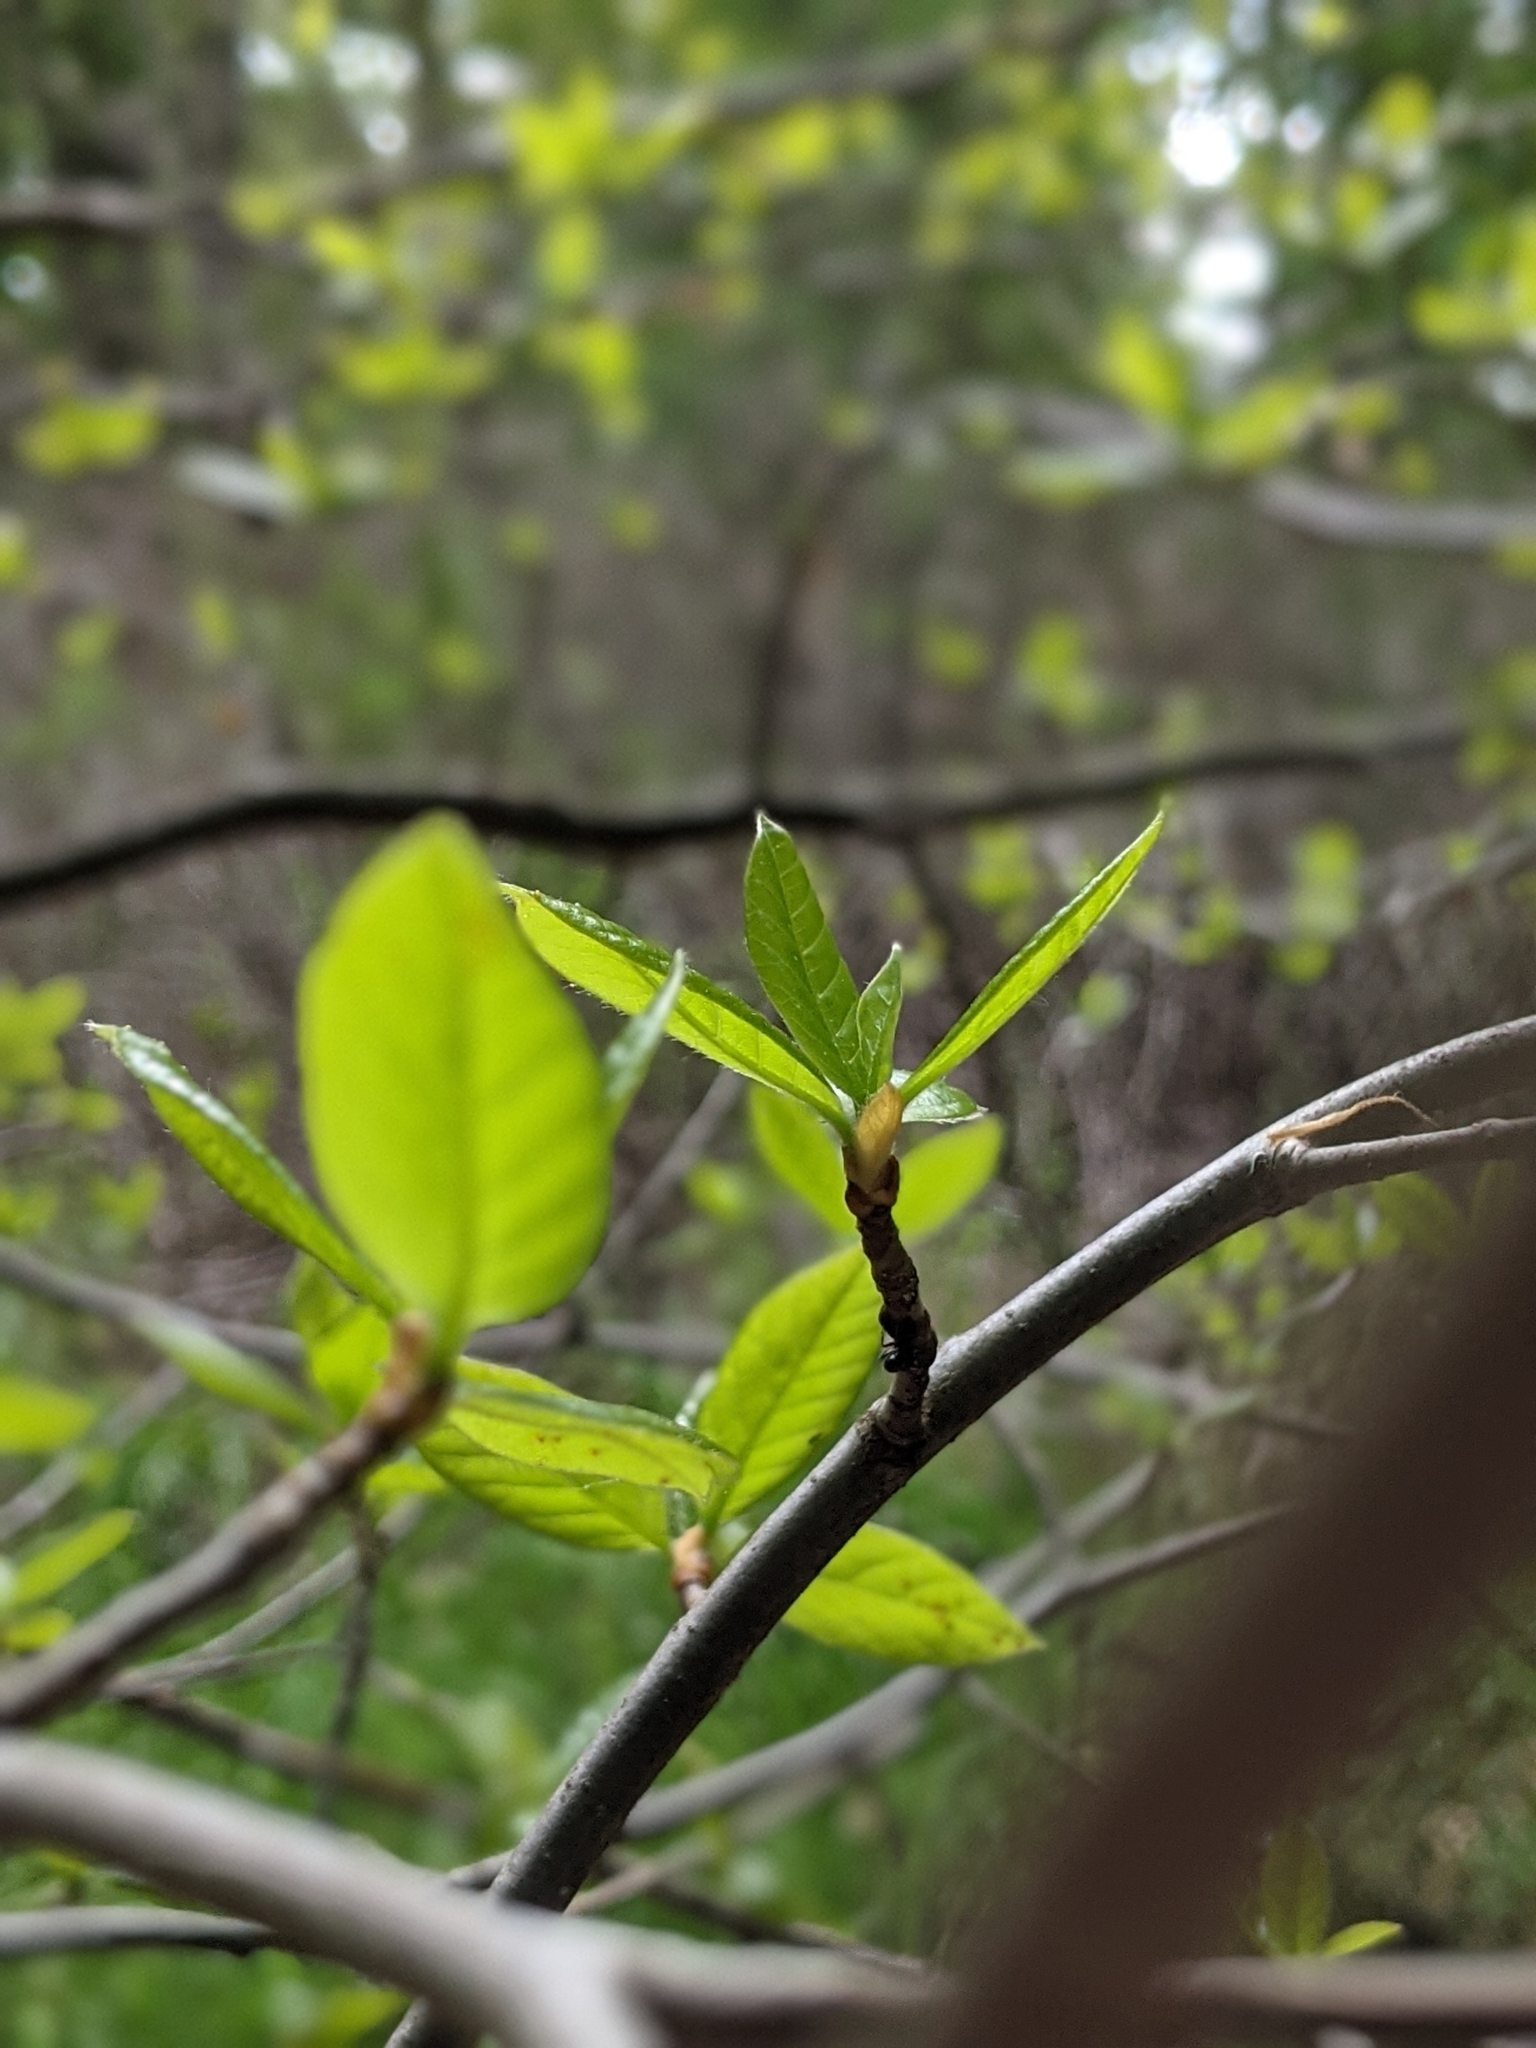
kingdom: Plantae
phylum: Tracheophyta
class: Magnoliopsida
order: Cornales
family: Nyssaceae
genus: Nyssa
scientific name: Nyssa sylvatica
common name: Black tupelo
